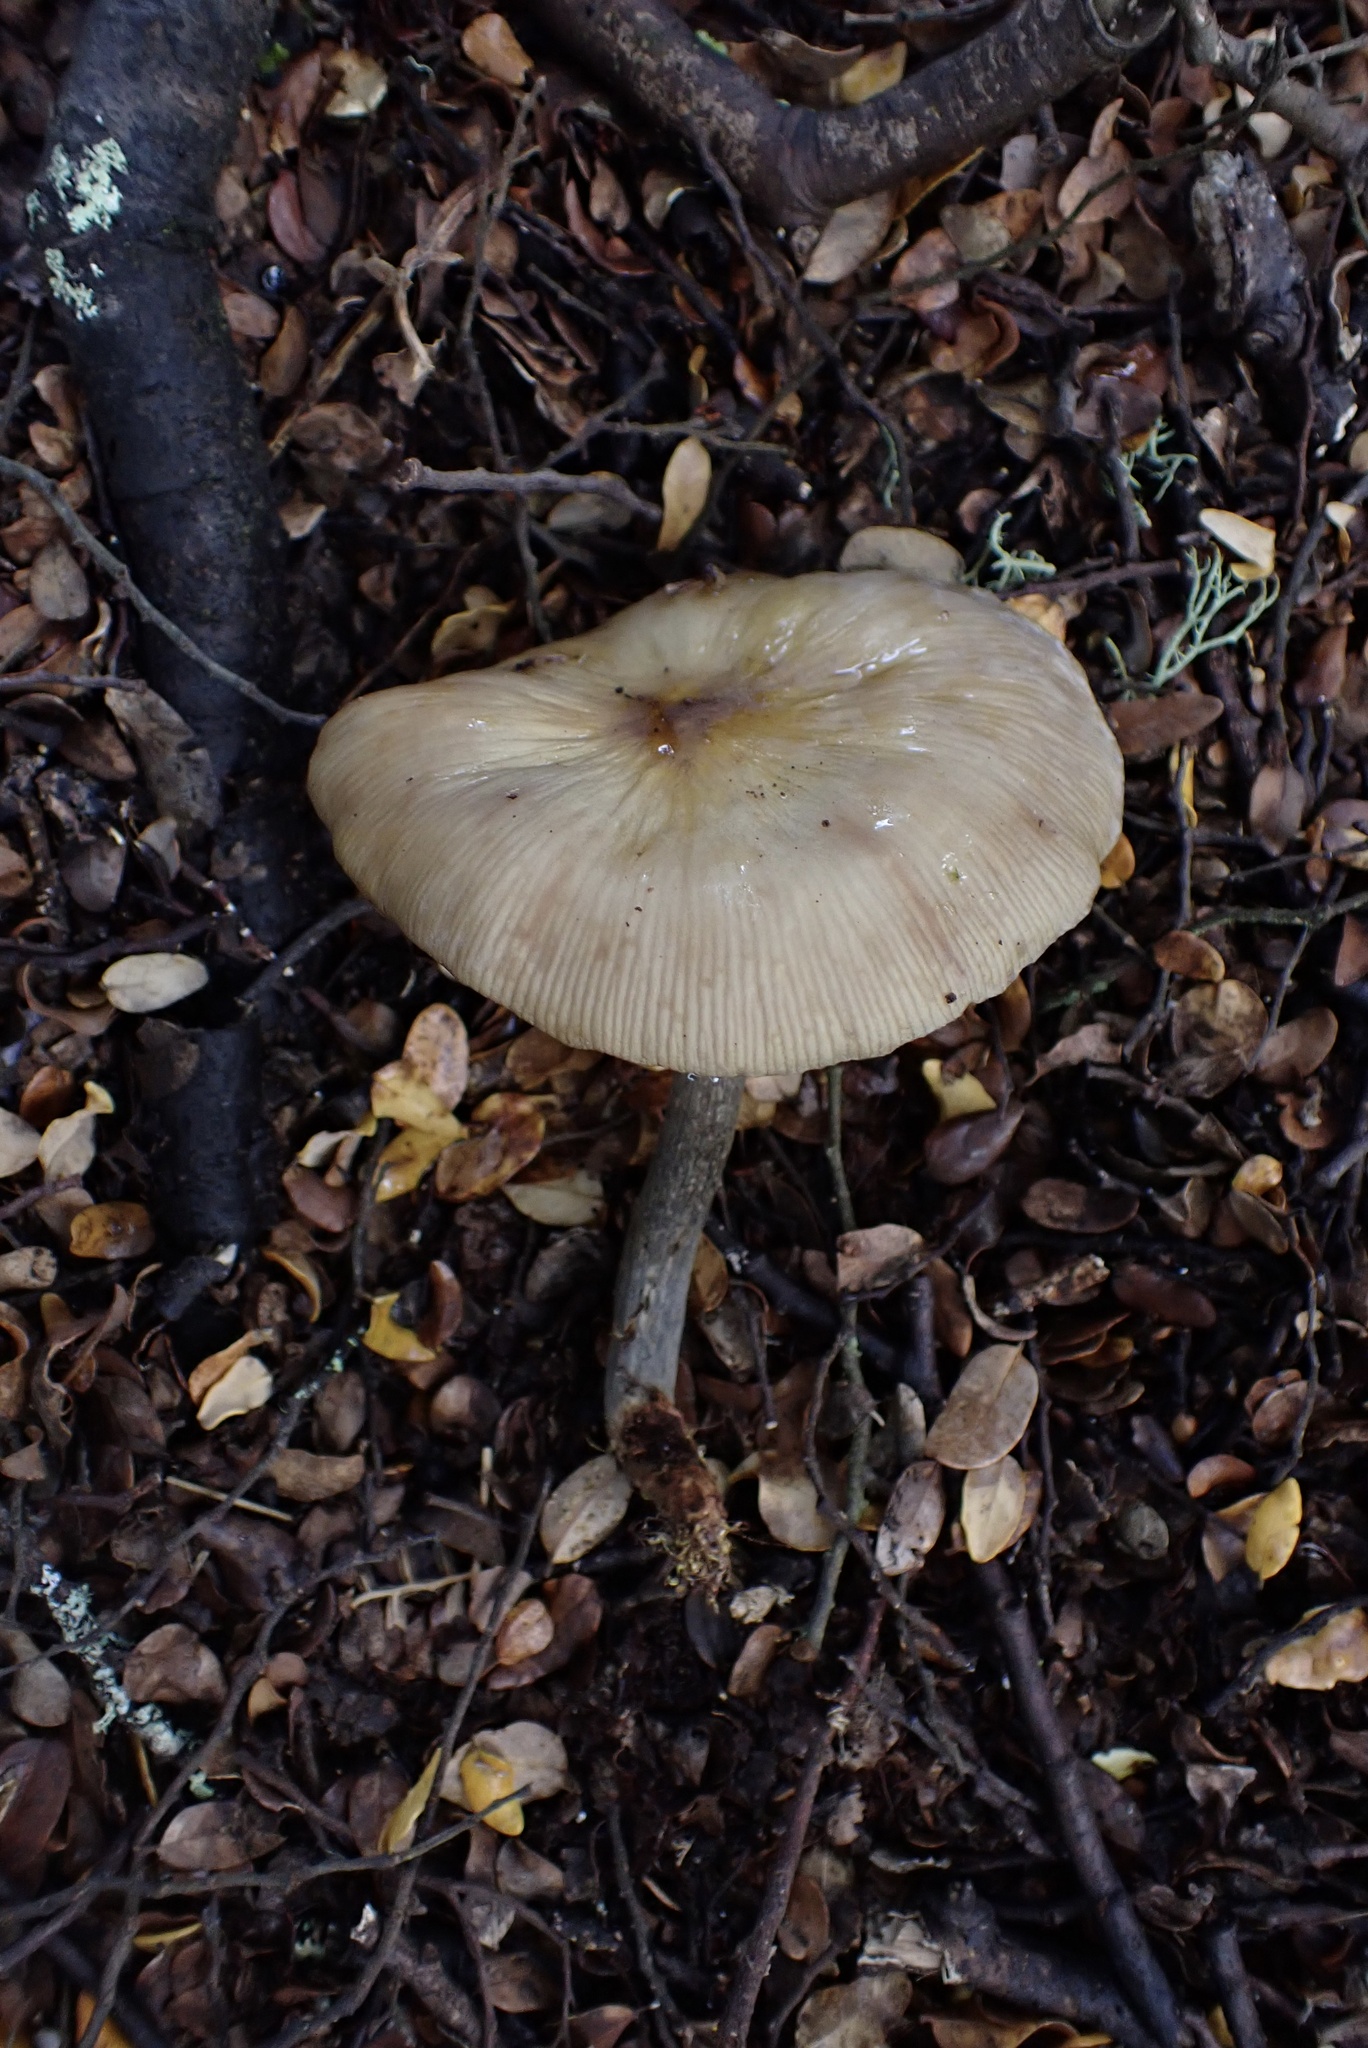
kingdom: Fungi
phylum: Basidiomycota
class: Agaricomycetes
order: Agaricales
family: Physalacriaceae
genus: Armillaria
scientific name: Armillaria novae-zelandiae
